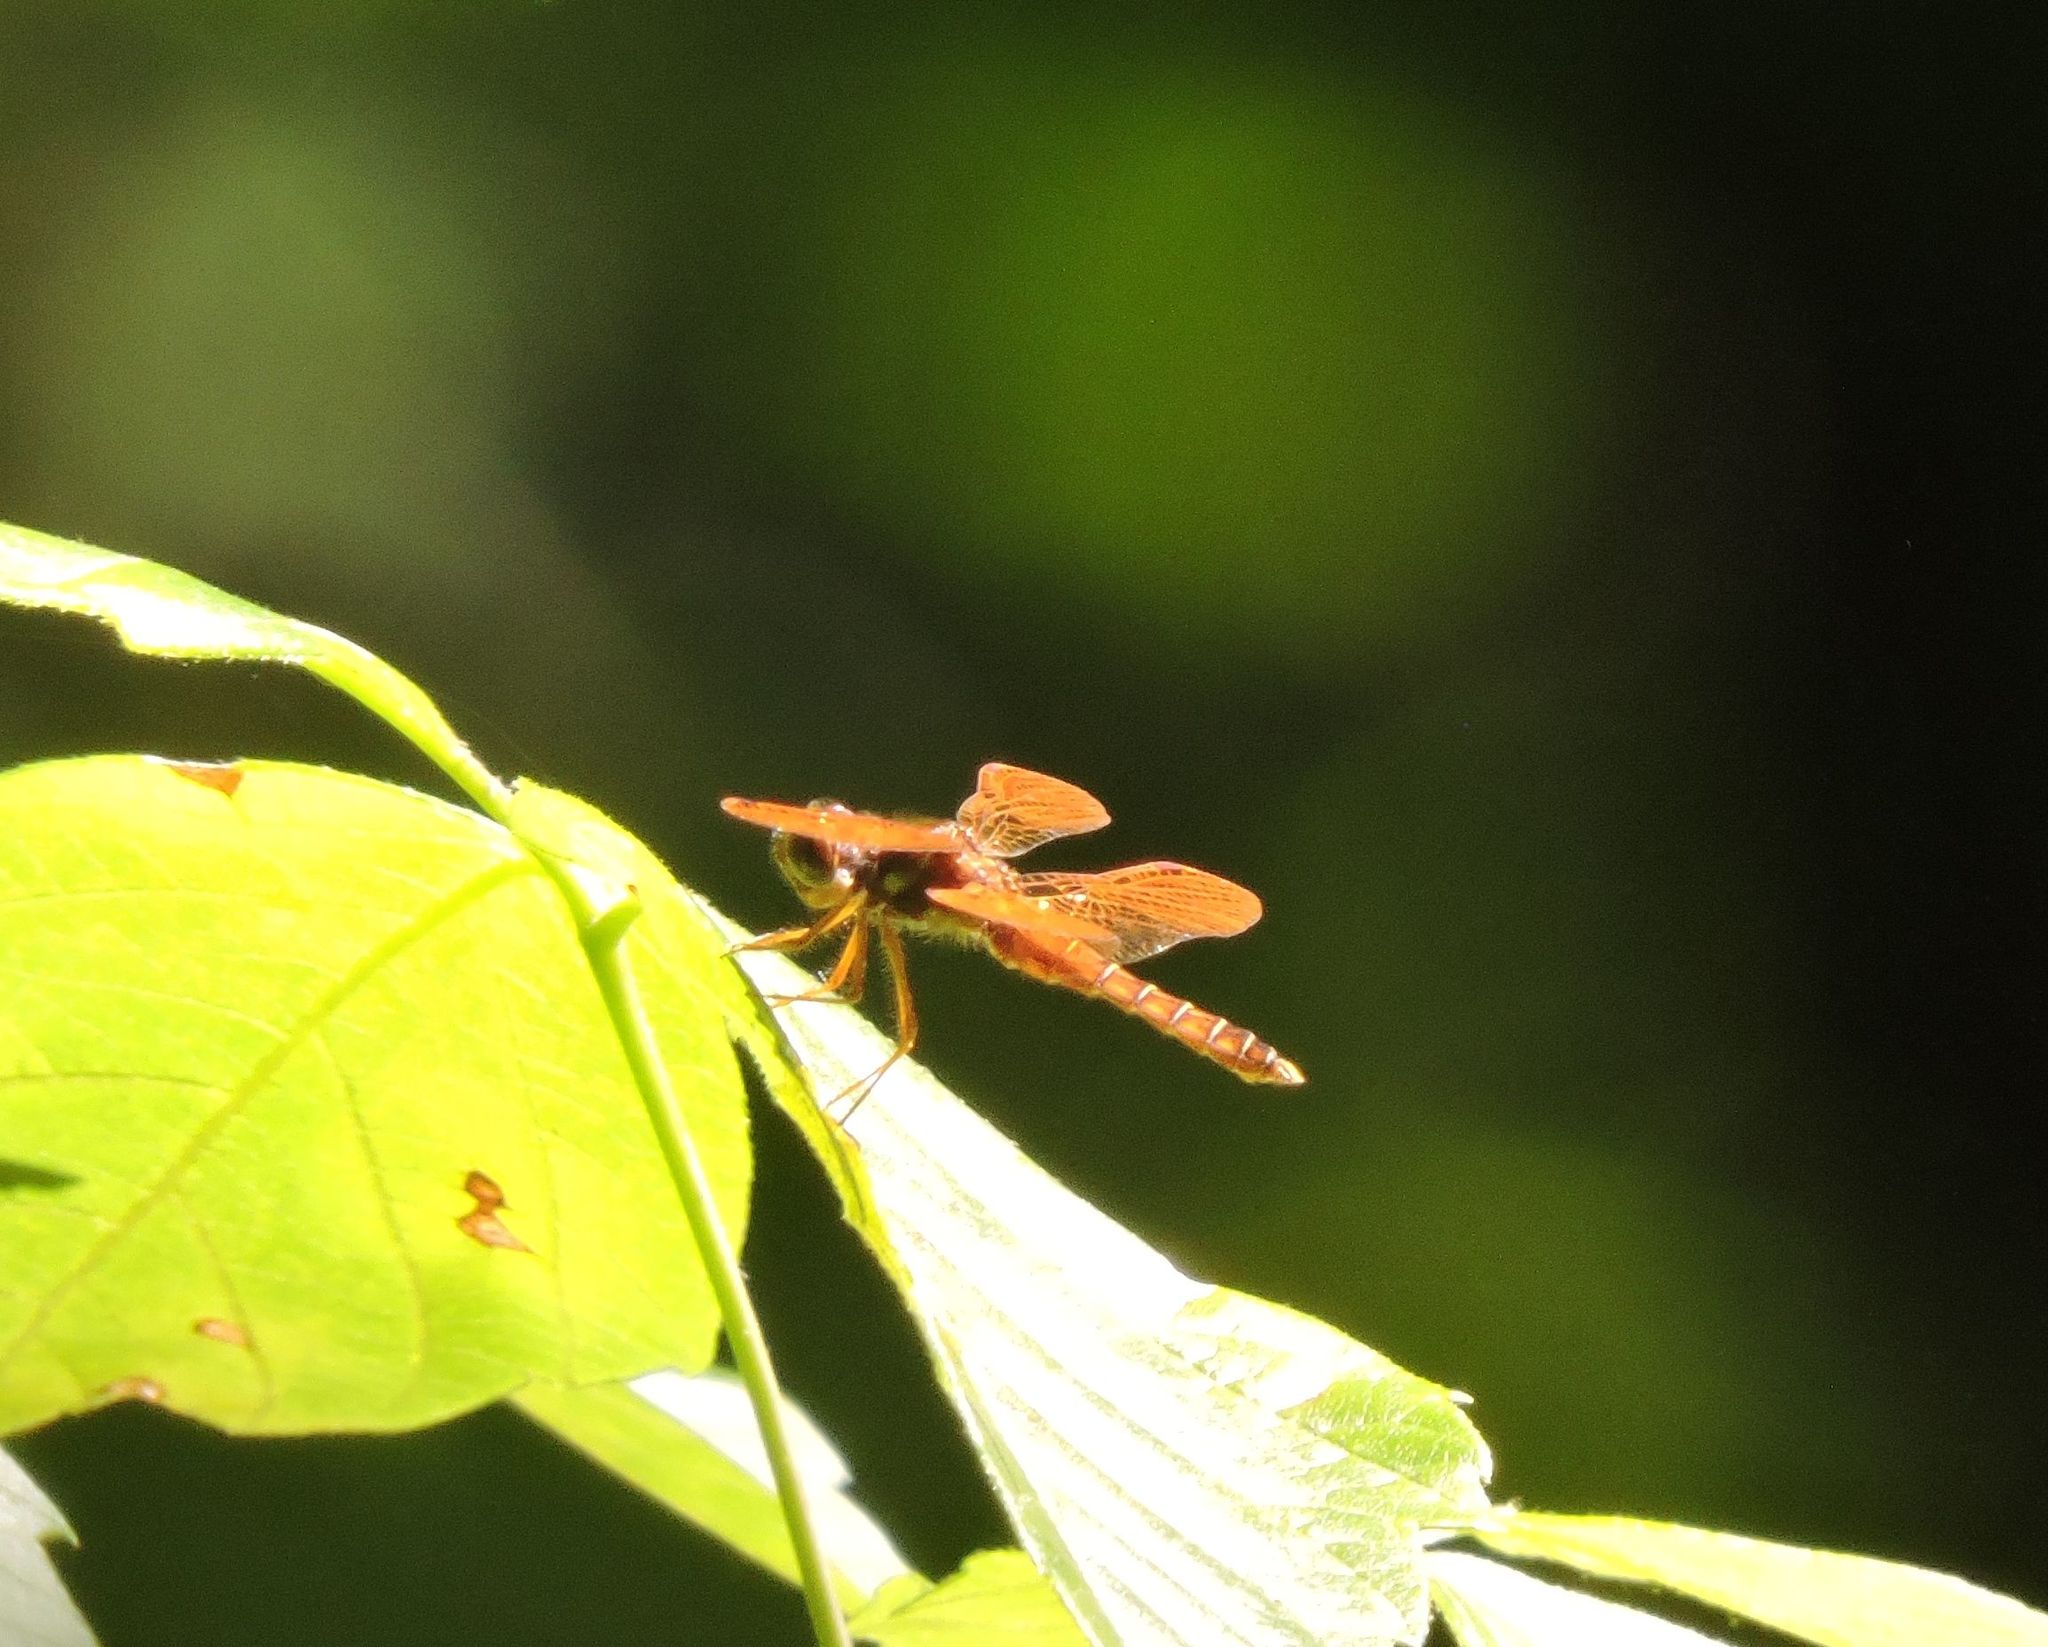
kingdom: Animalia
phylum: Arthropoda
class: Insecta
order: Odonata
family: Libellulidae
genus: Perithemis
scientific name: Perithemis tenera
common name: Eastern amberwing
